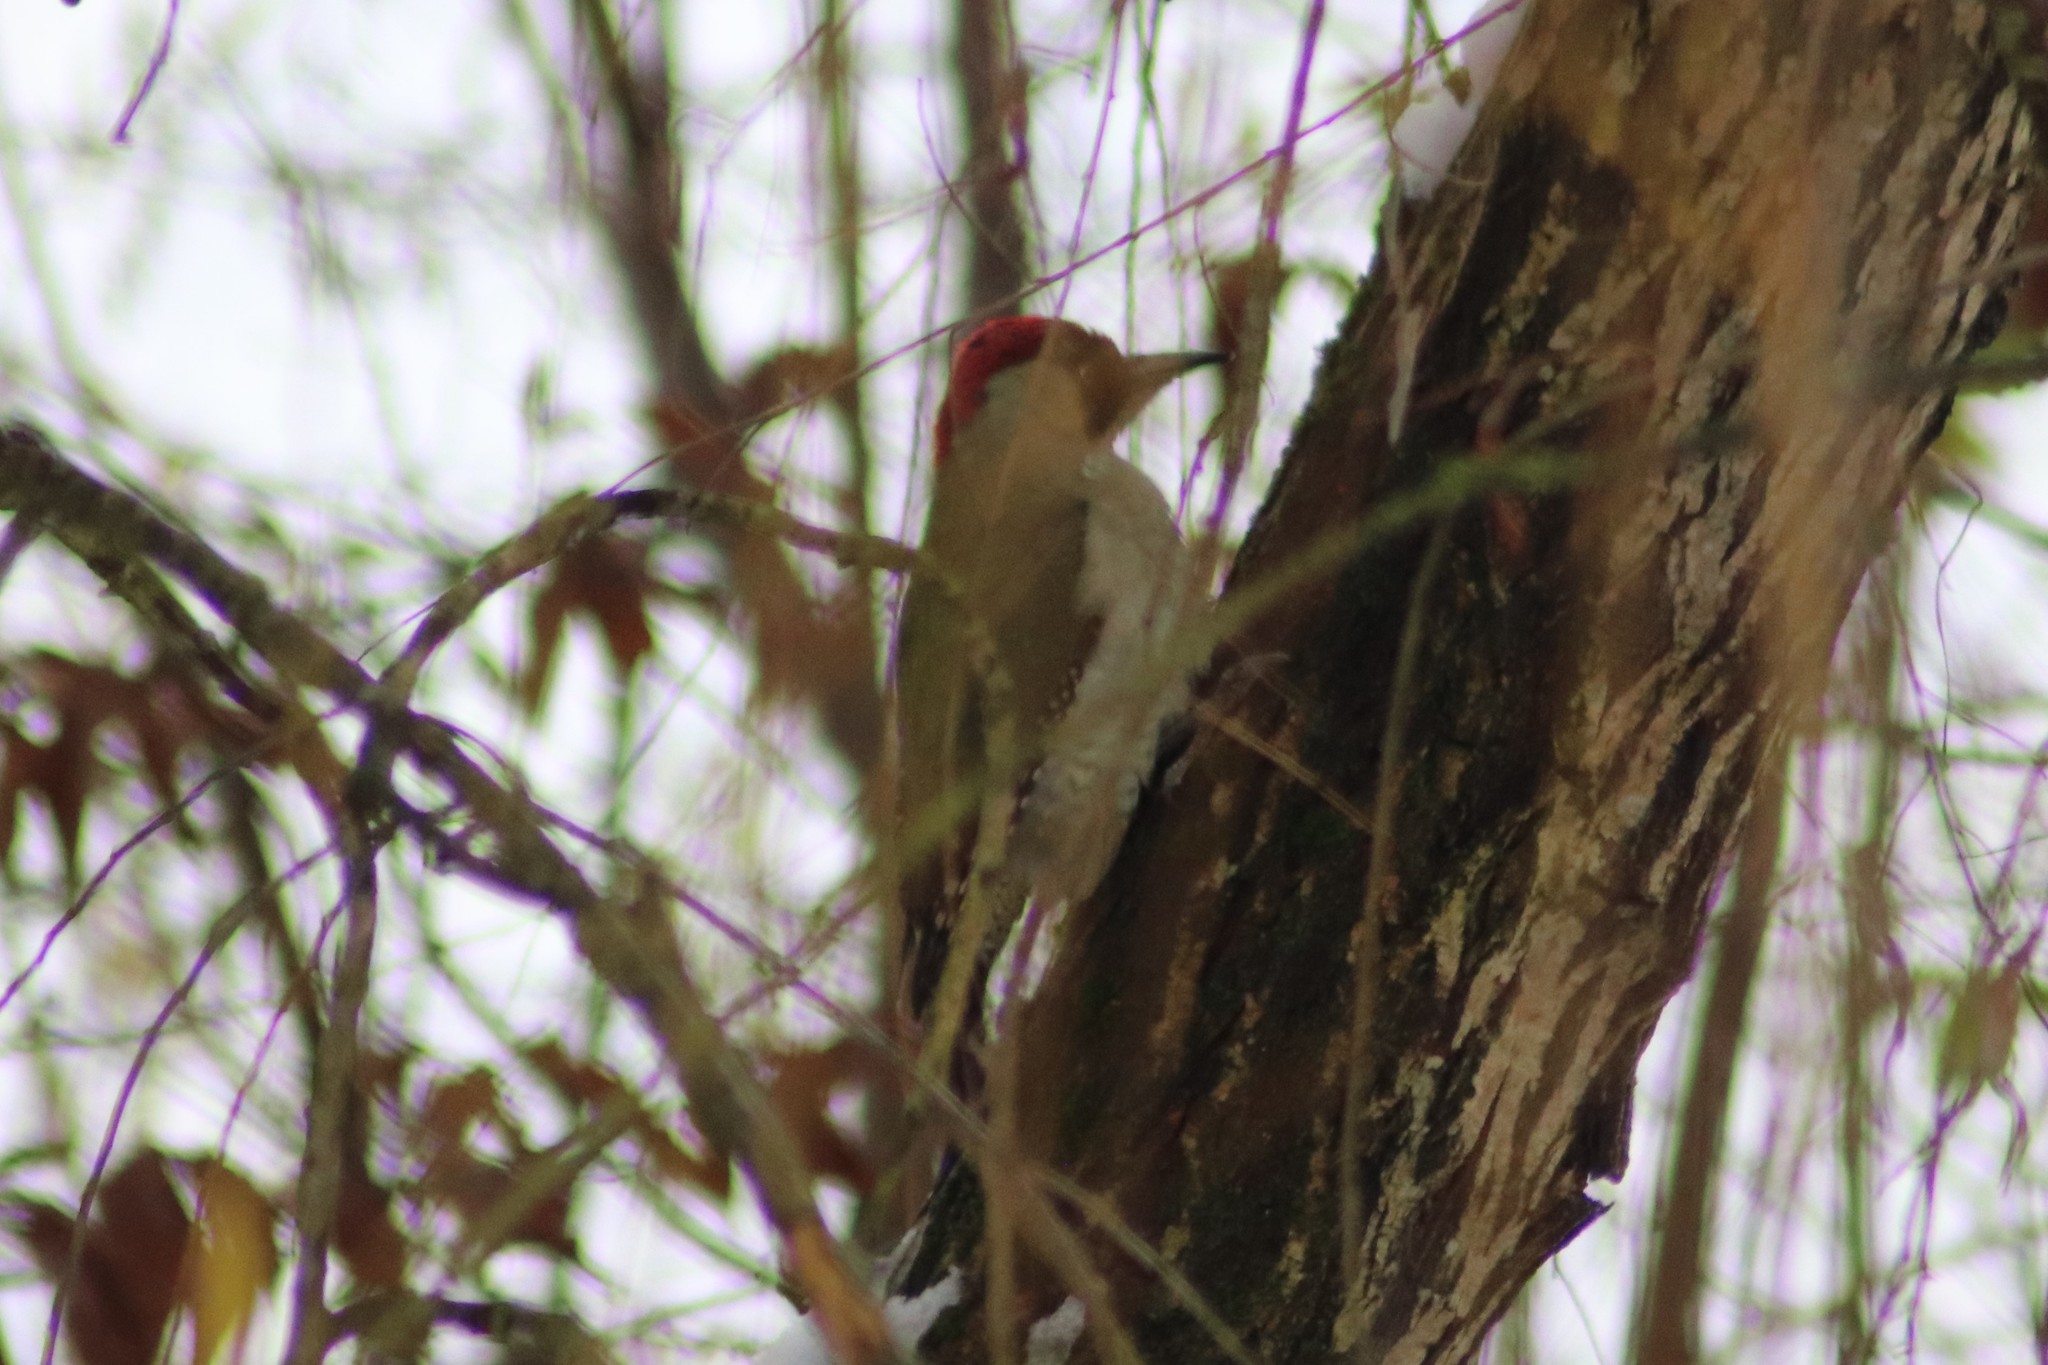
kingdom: Animalia
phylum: Chordata
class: Aves
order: Piciformes
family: Picidae
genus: Picus
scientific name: Picus viridis
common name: European green woodpecker
